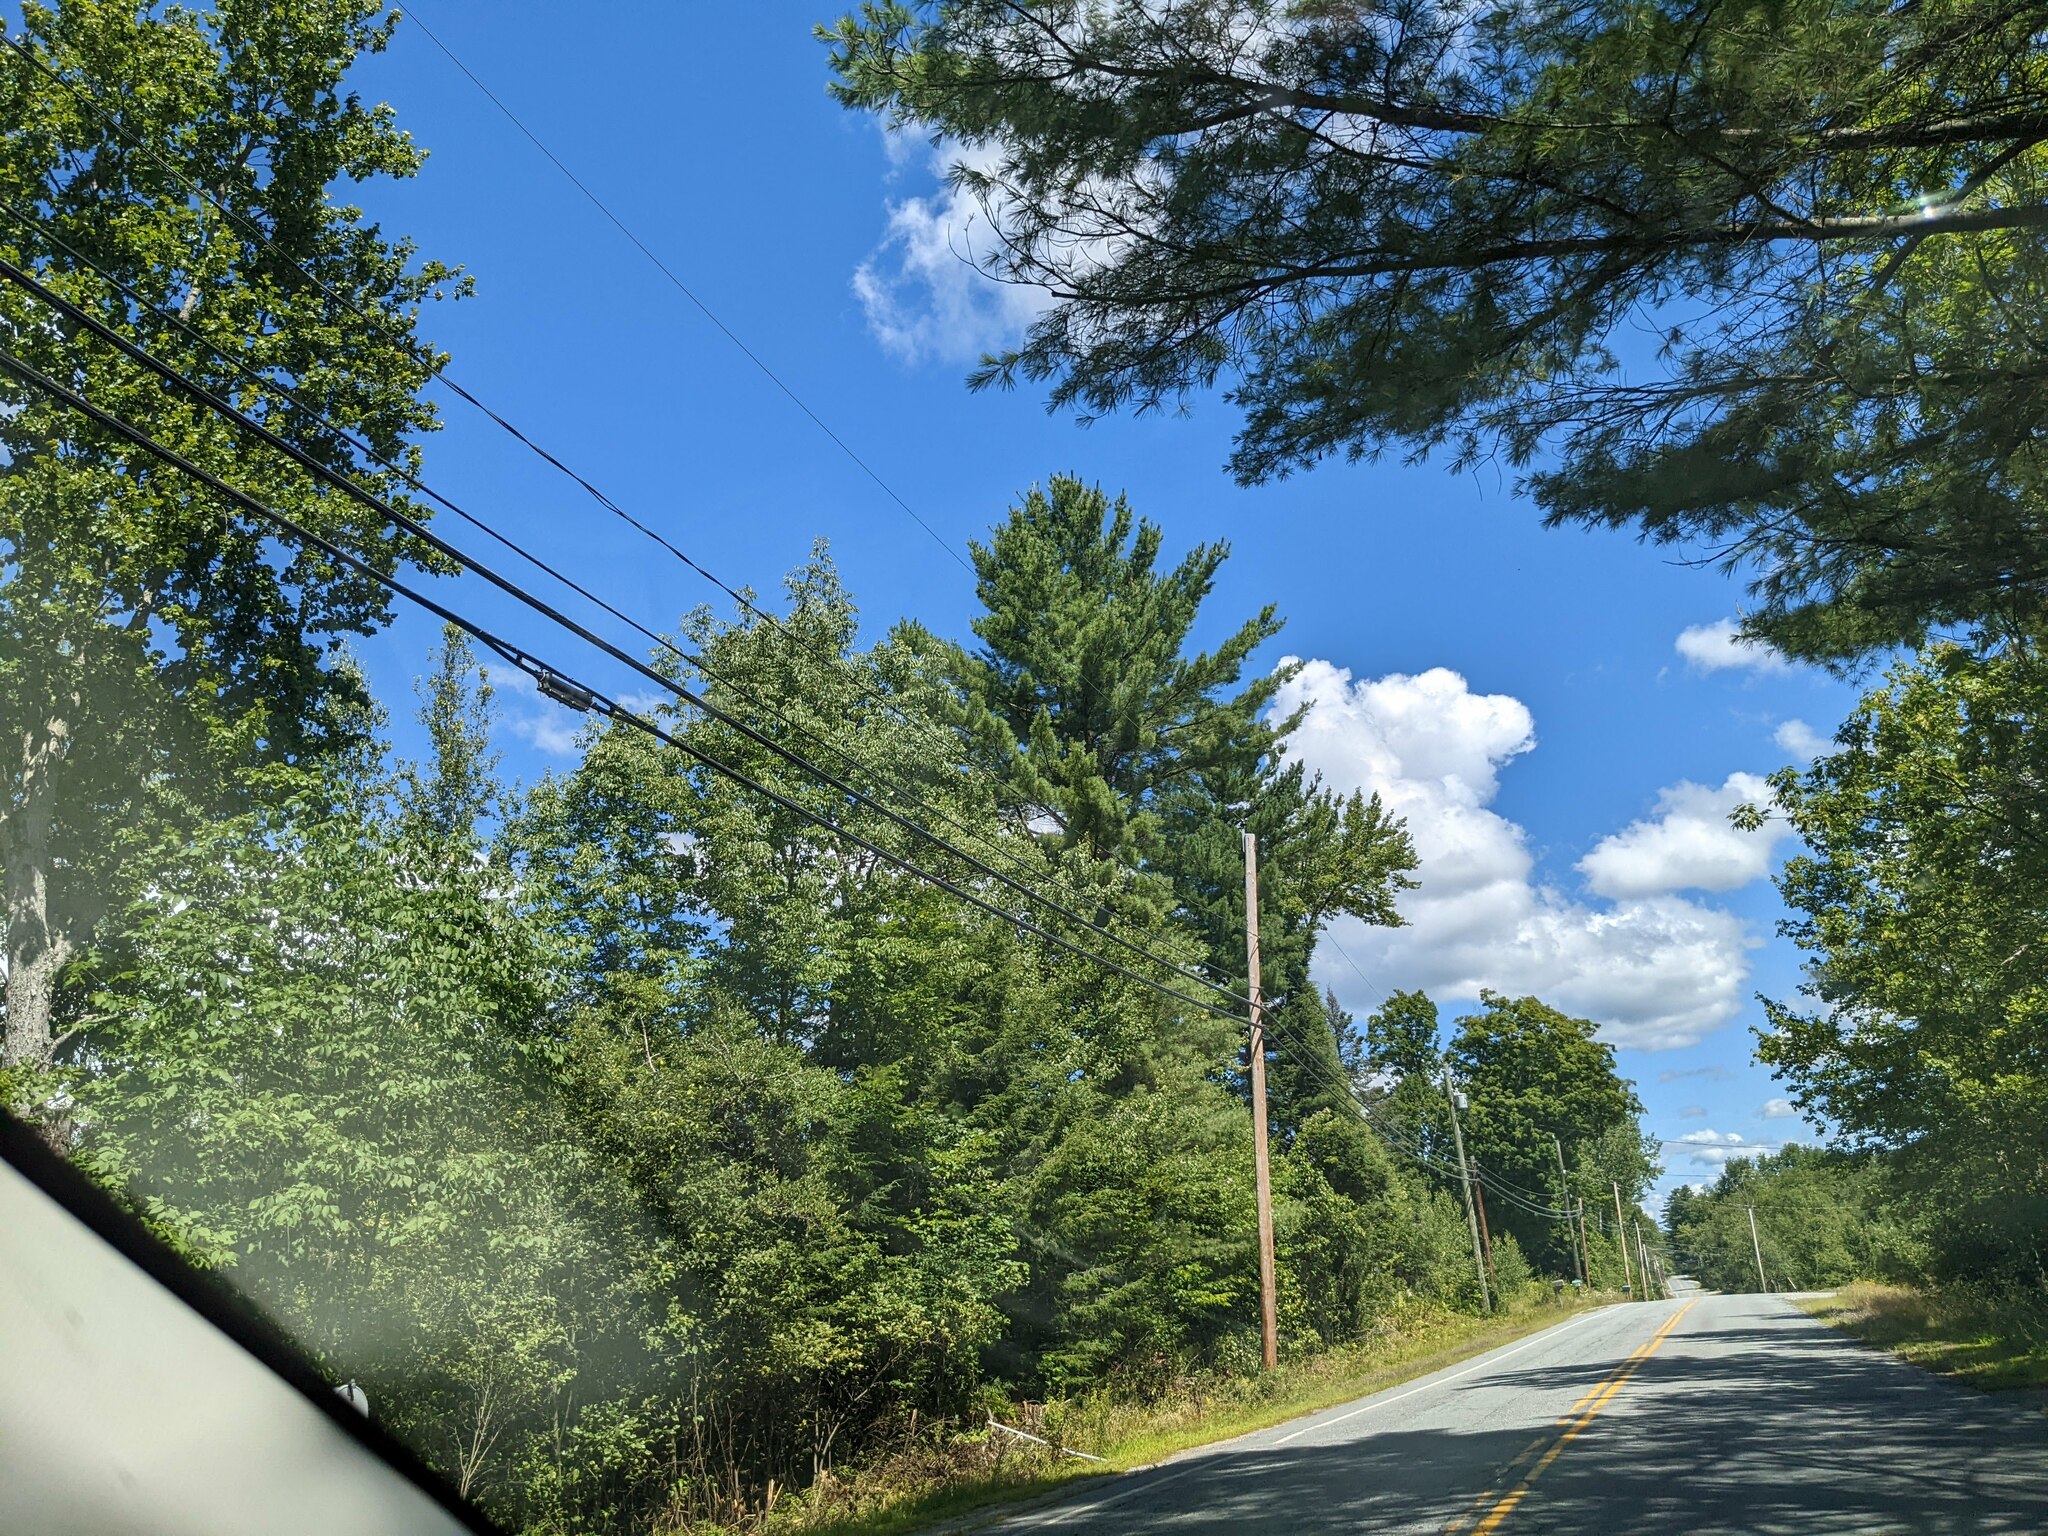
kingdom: Plantae
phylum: Tracheophyta
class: Pinopsida
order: Pinales
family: Pinaceae
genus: Pinus
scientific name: Pinus strobus
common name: Weymouth pine
